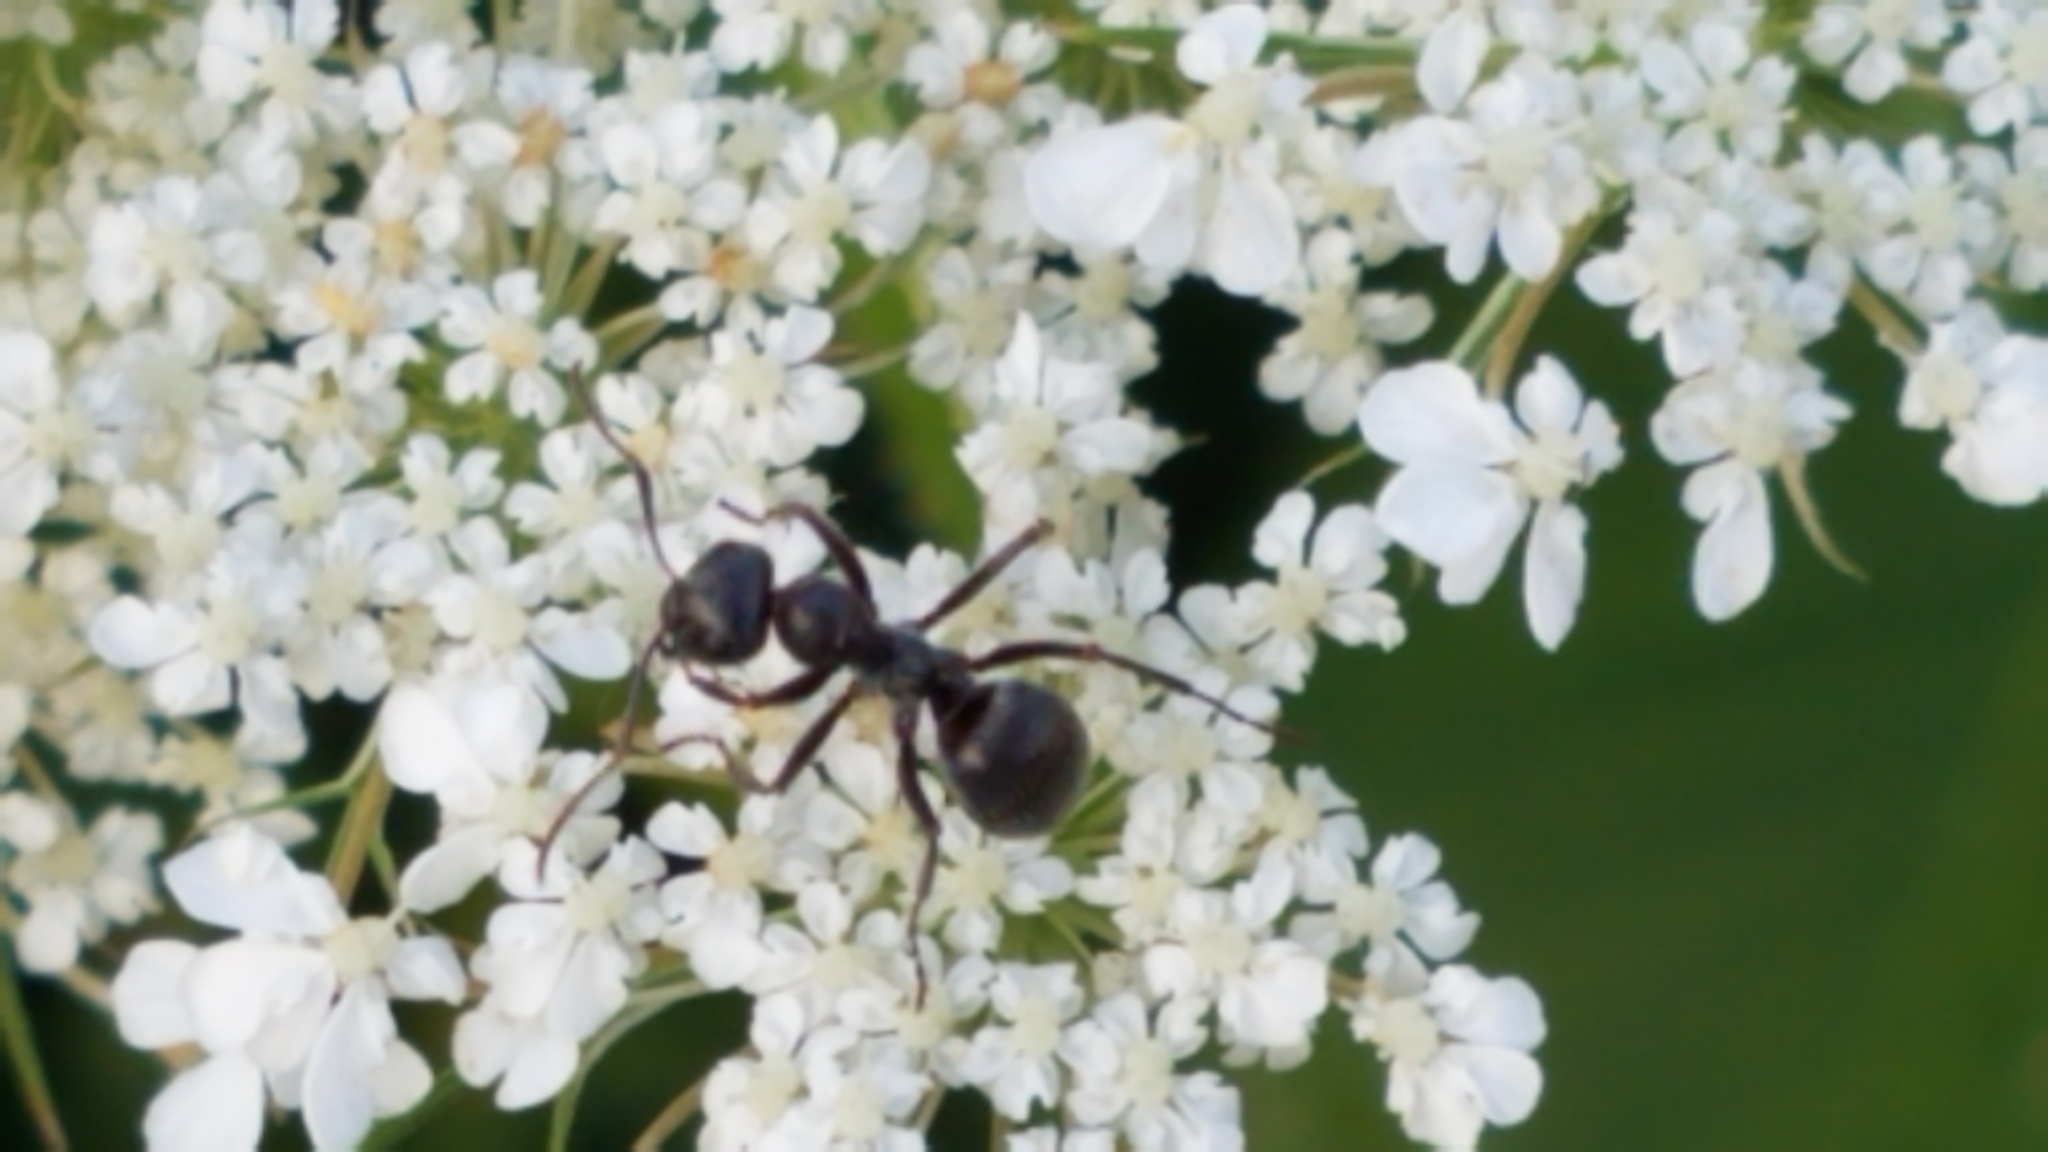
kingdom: Animalia
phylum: Arthropoda
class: Insecta
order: Hymenoptera
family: Formicidae
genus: Formica
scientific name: Formica
